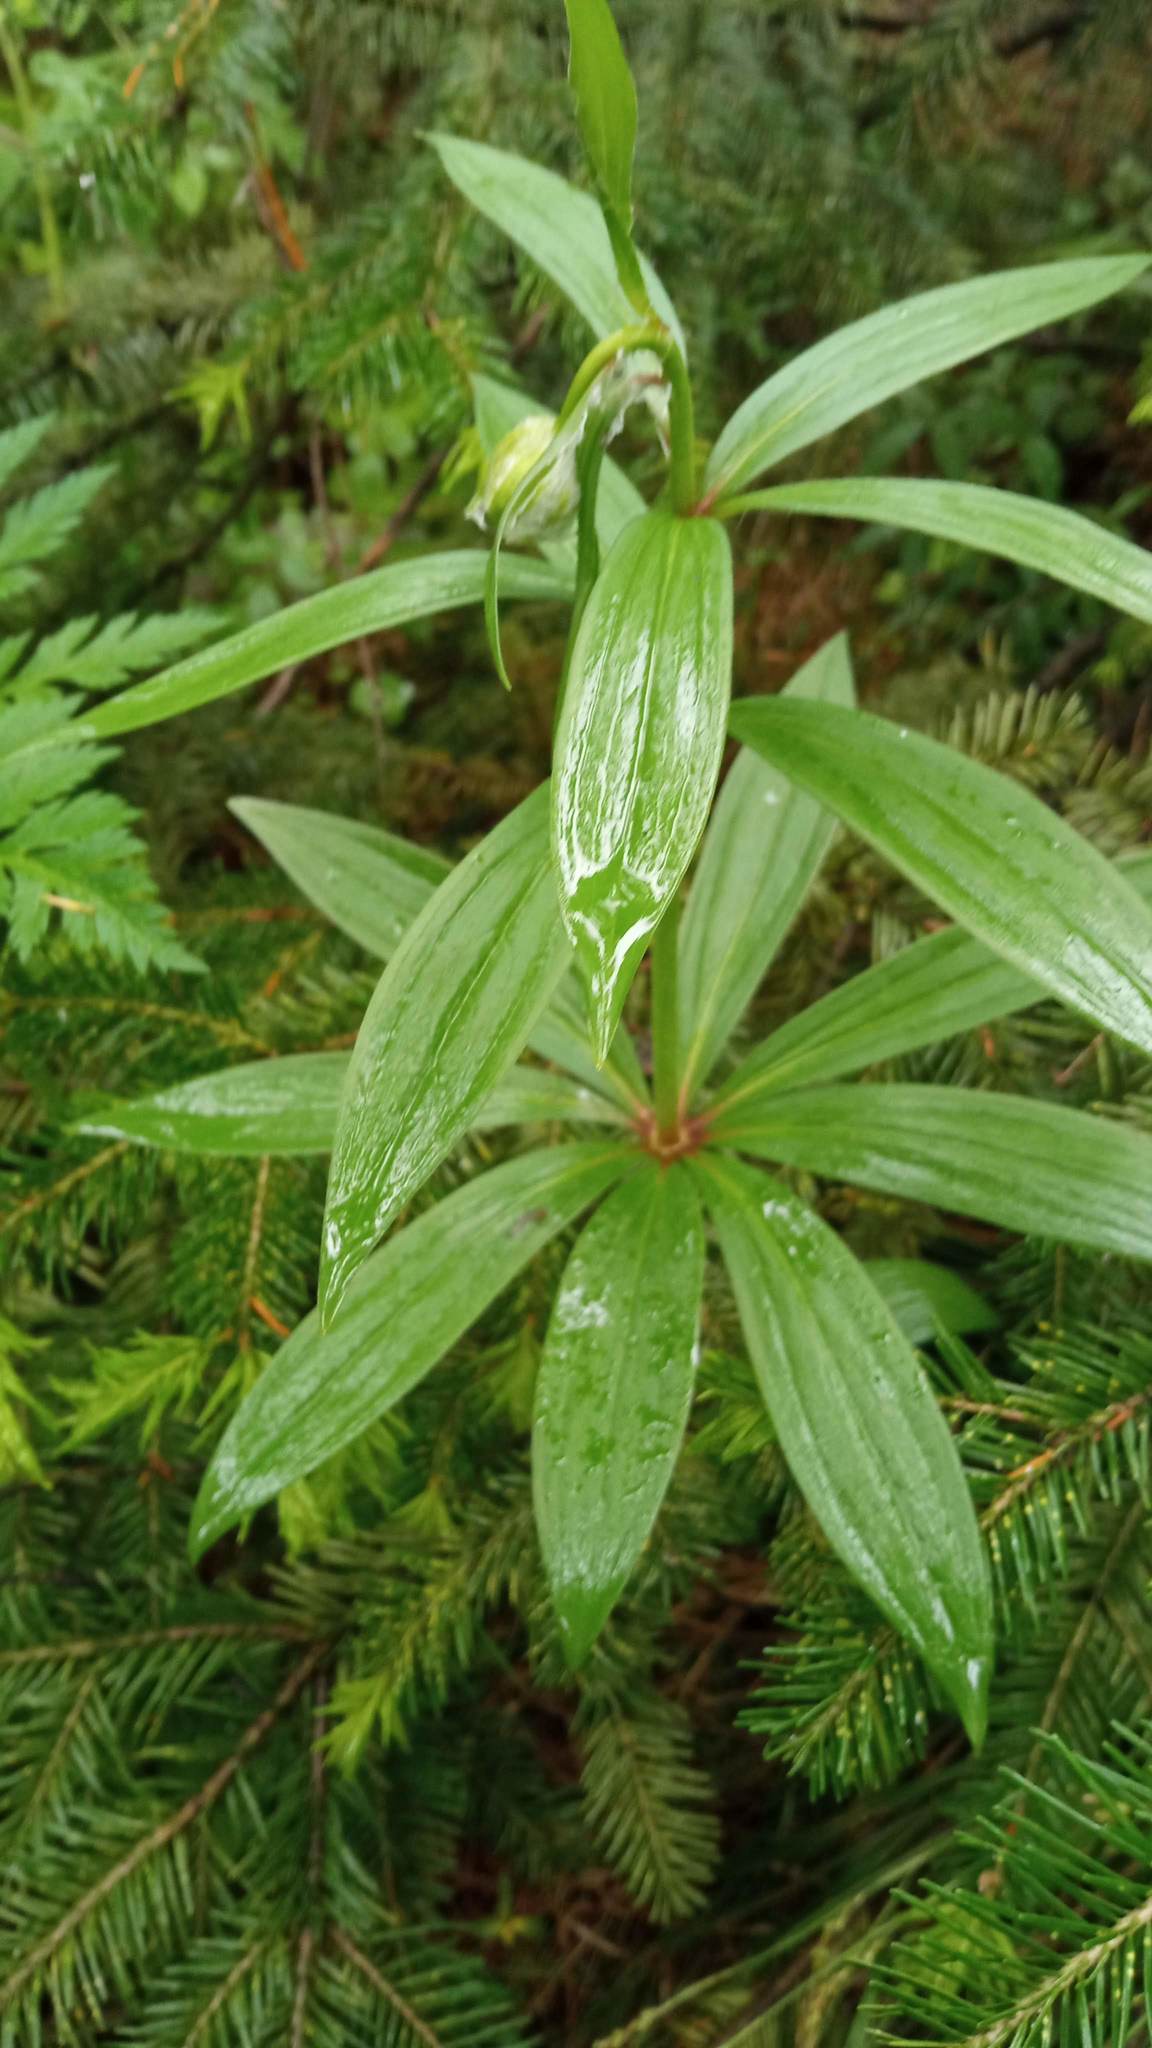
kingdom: Plantae
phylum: Tracheophyta
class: Liliopsida
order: Liliales
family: Liliaceae
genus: Lilium
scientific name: Lilium martagon
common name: Martagon lily
